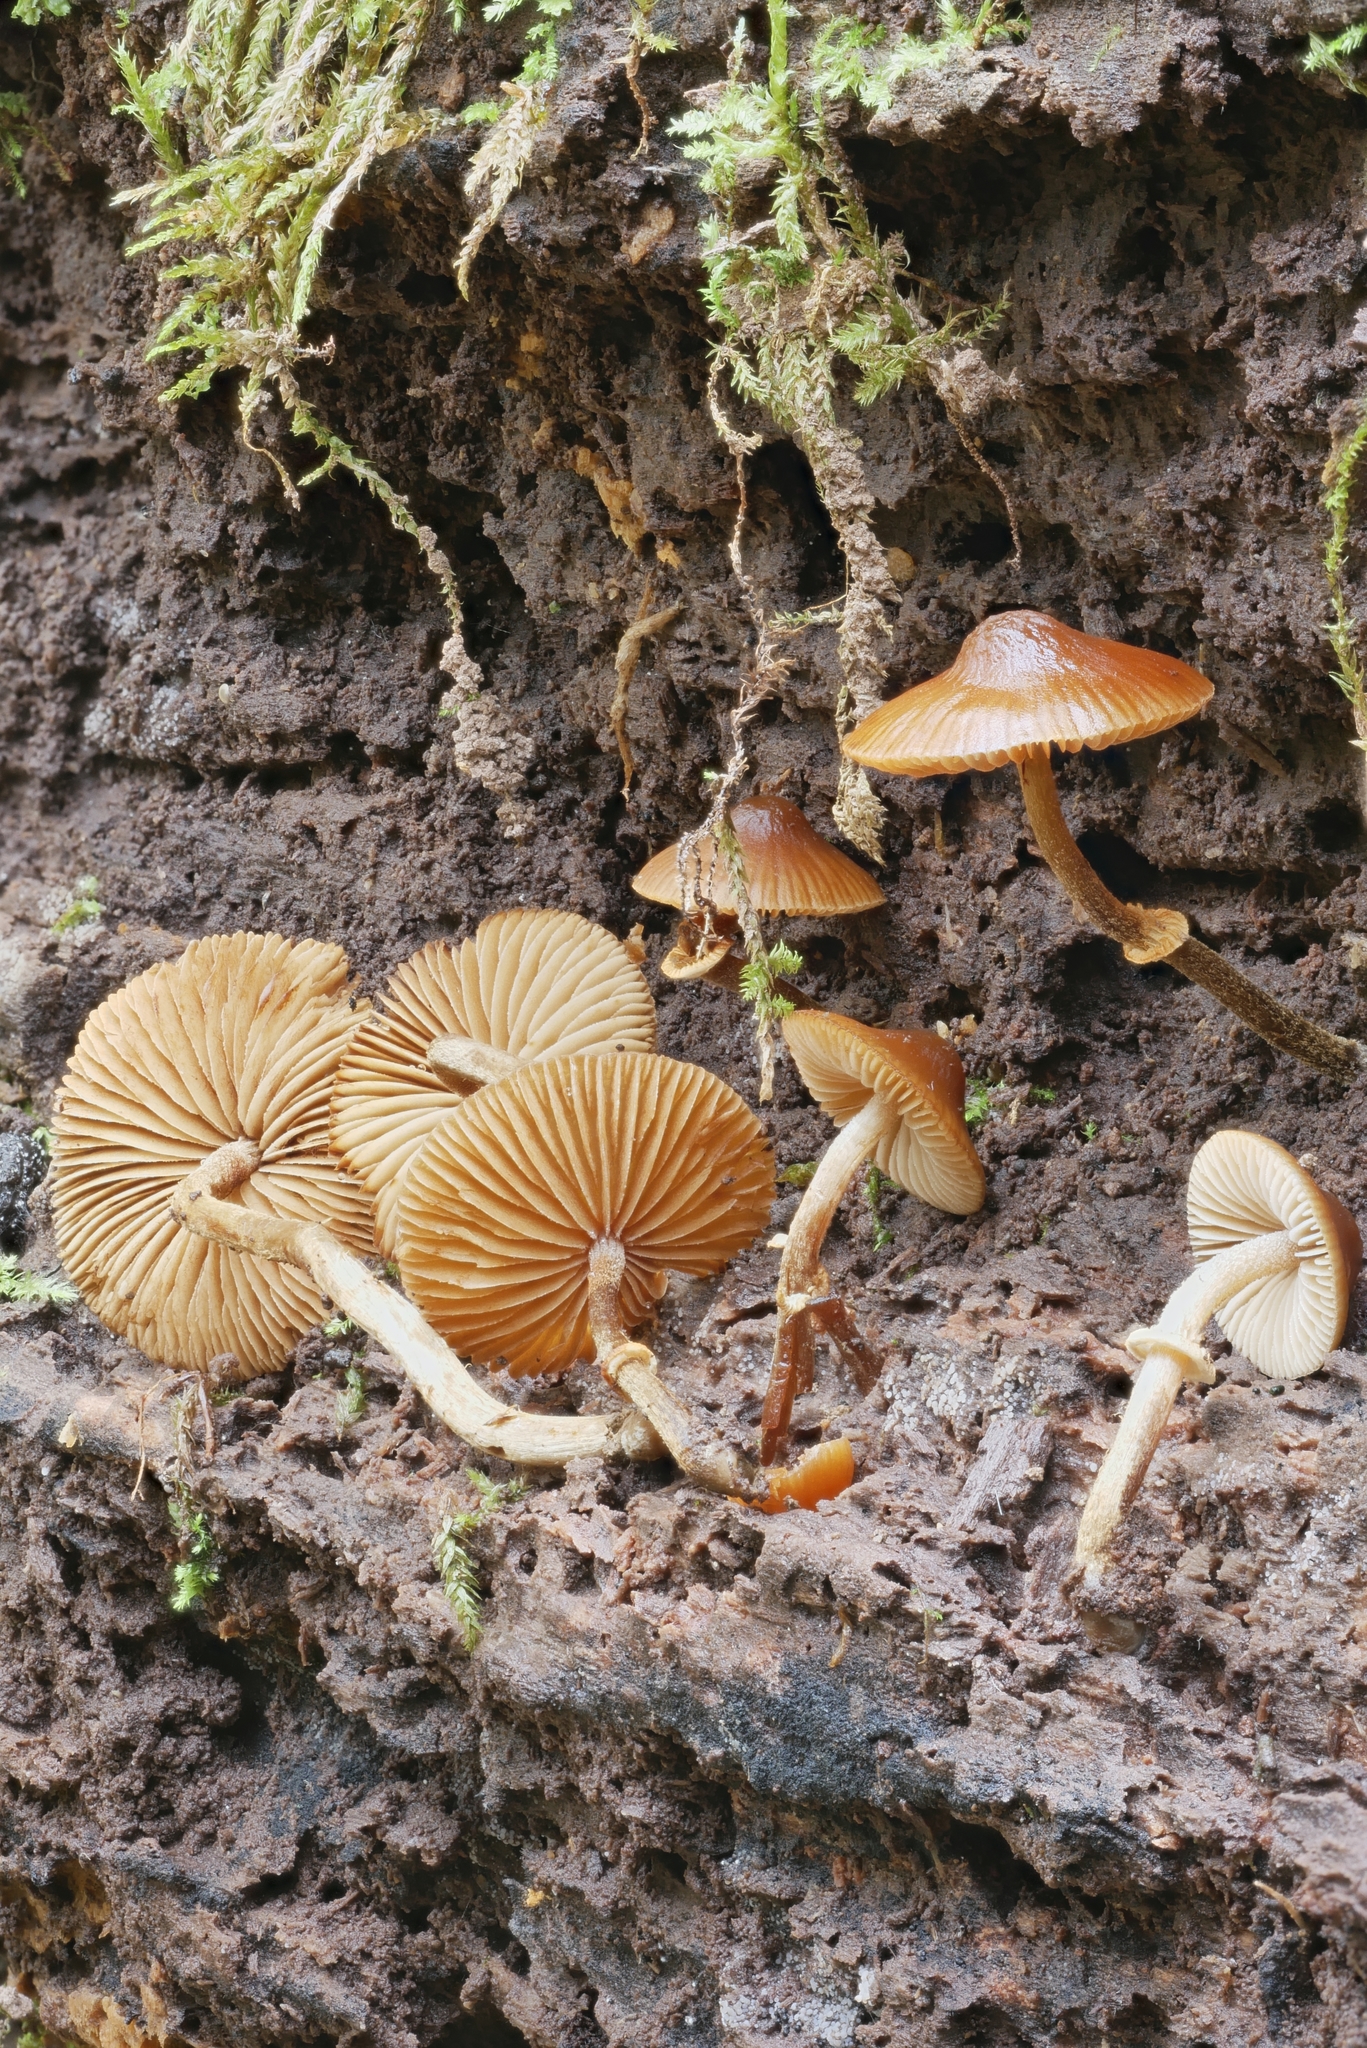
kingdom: Fungi
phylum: Basidiomycota
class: Agaricomycetes
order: Agaricales
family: Bolbitiaceae
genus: Conocybe
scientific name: Conocybe rugosa
